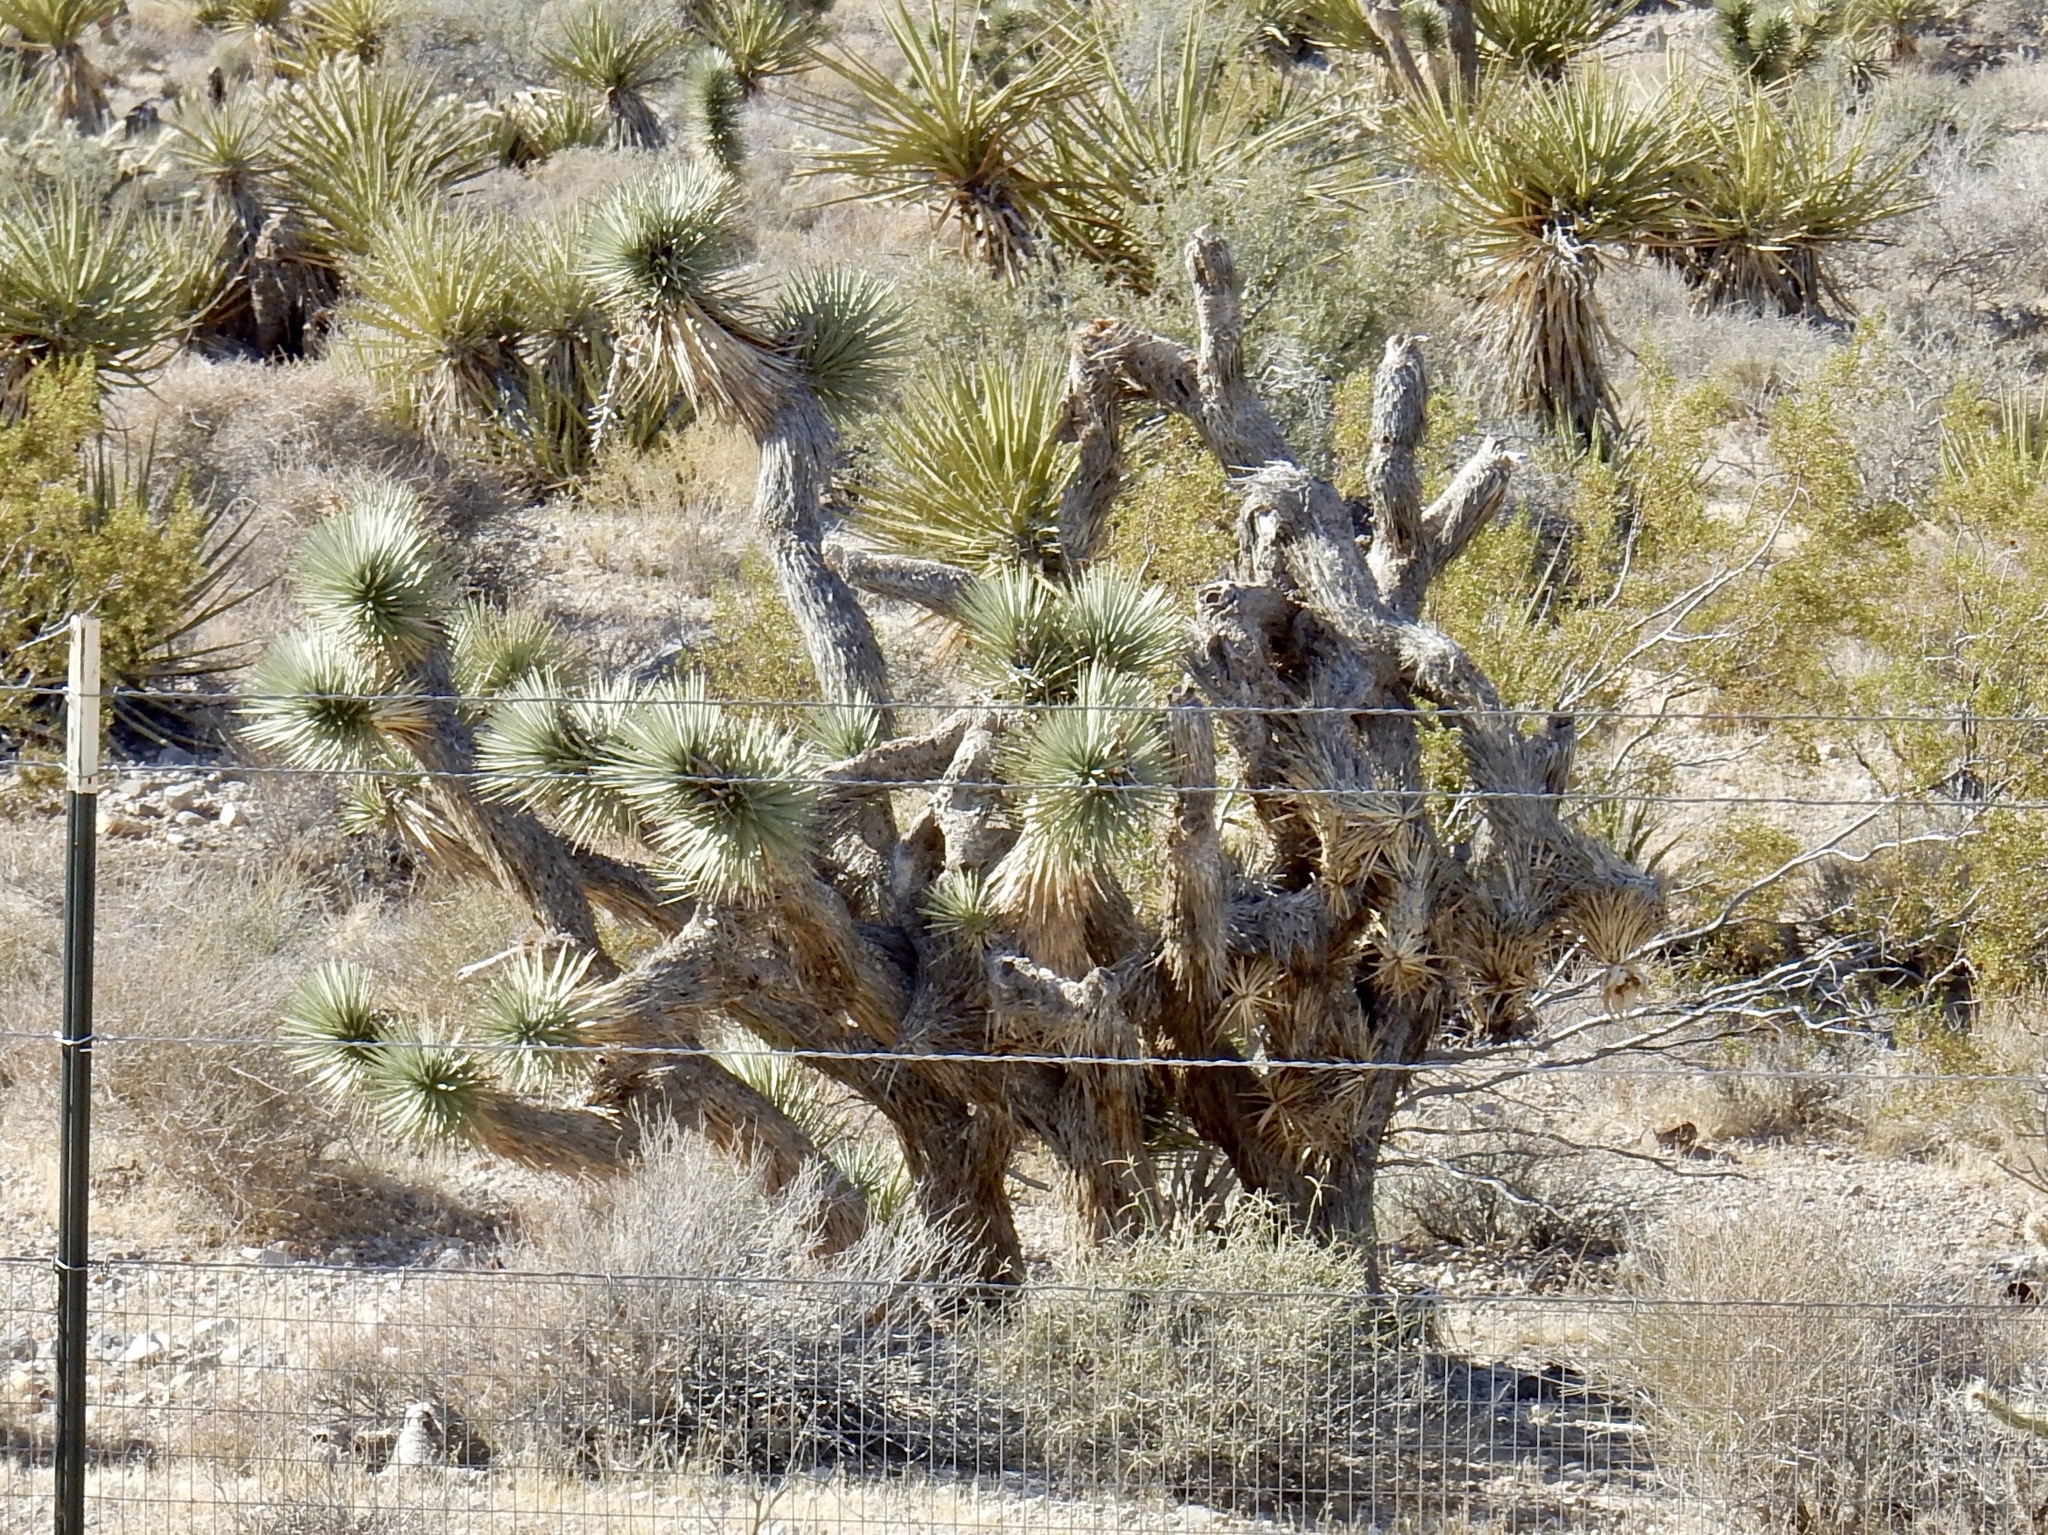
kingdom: Plantae
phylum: Tracheophyta
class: Liliopsida
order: Asparagales
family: Asparagaceae
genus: Yucca
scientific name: Yucca brevifolia
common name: Joshua tree
